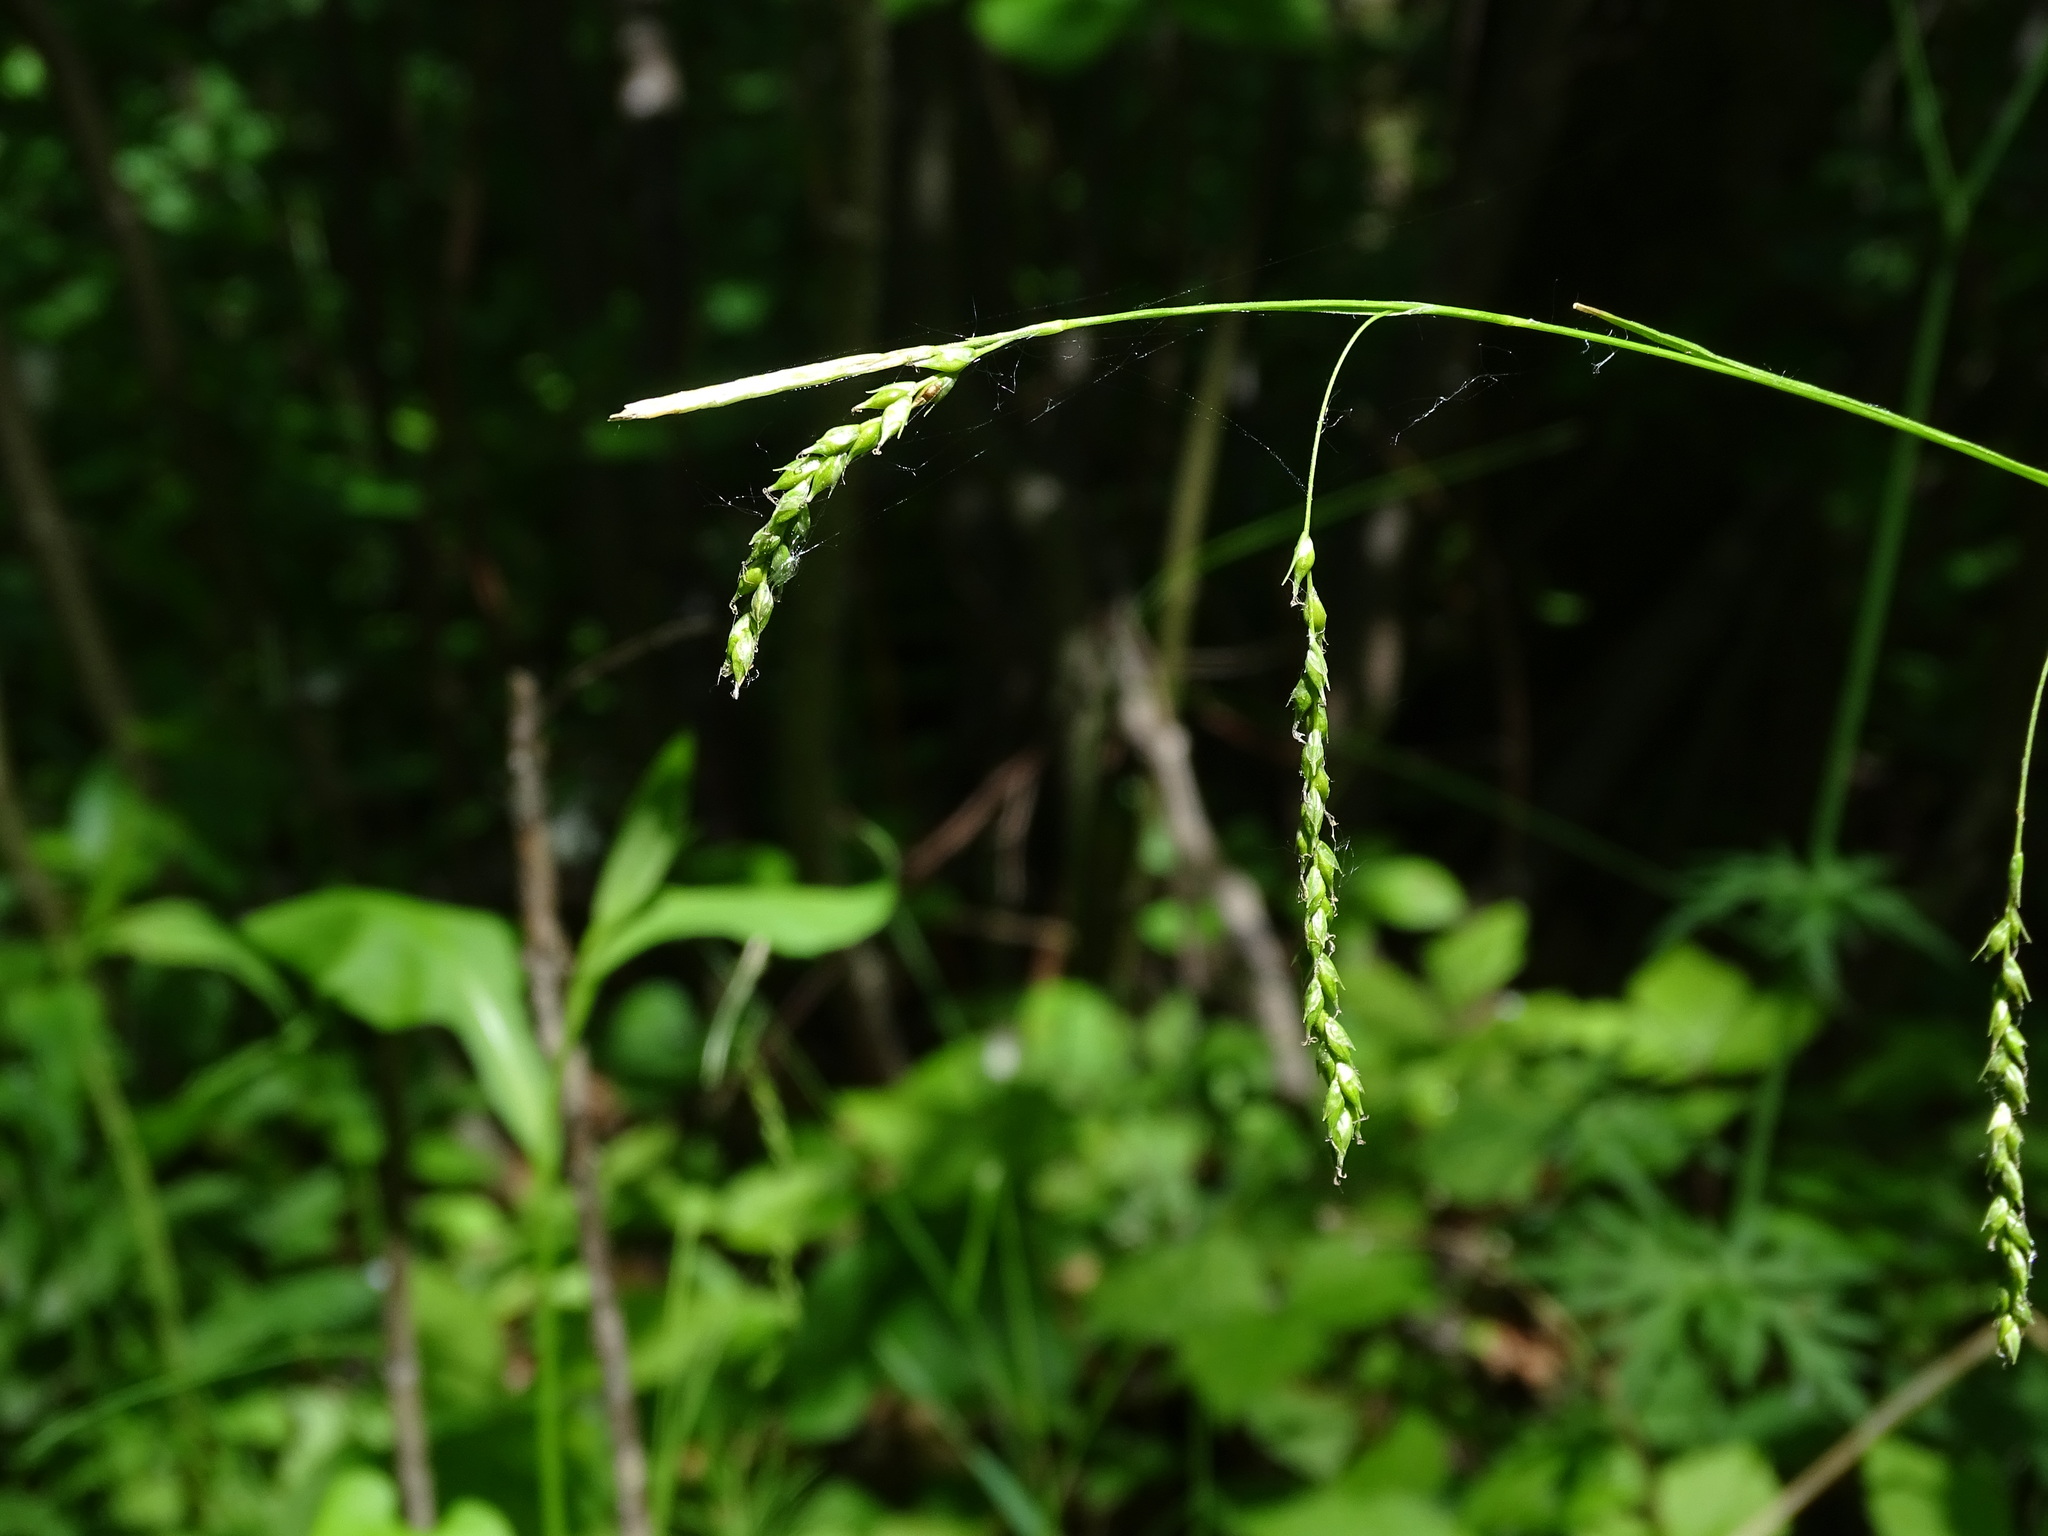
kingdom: Plantae
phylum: Tracheophyta
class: Liliopsida
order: Poales
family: Cyperaceae
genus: Carex
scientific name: Carex arctata
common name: Black sedge
